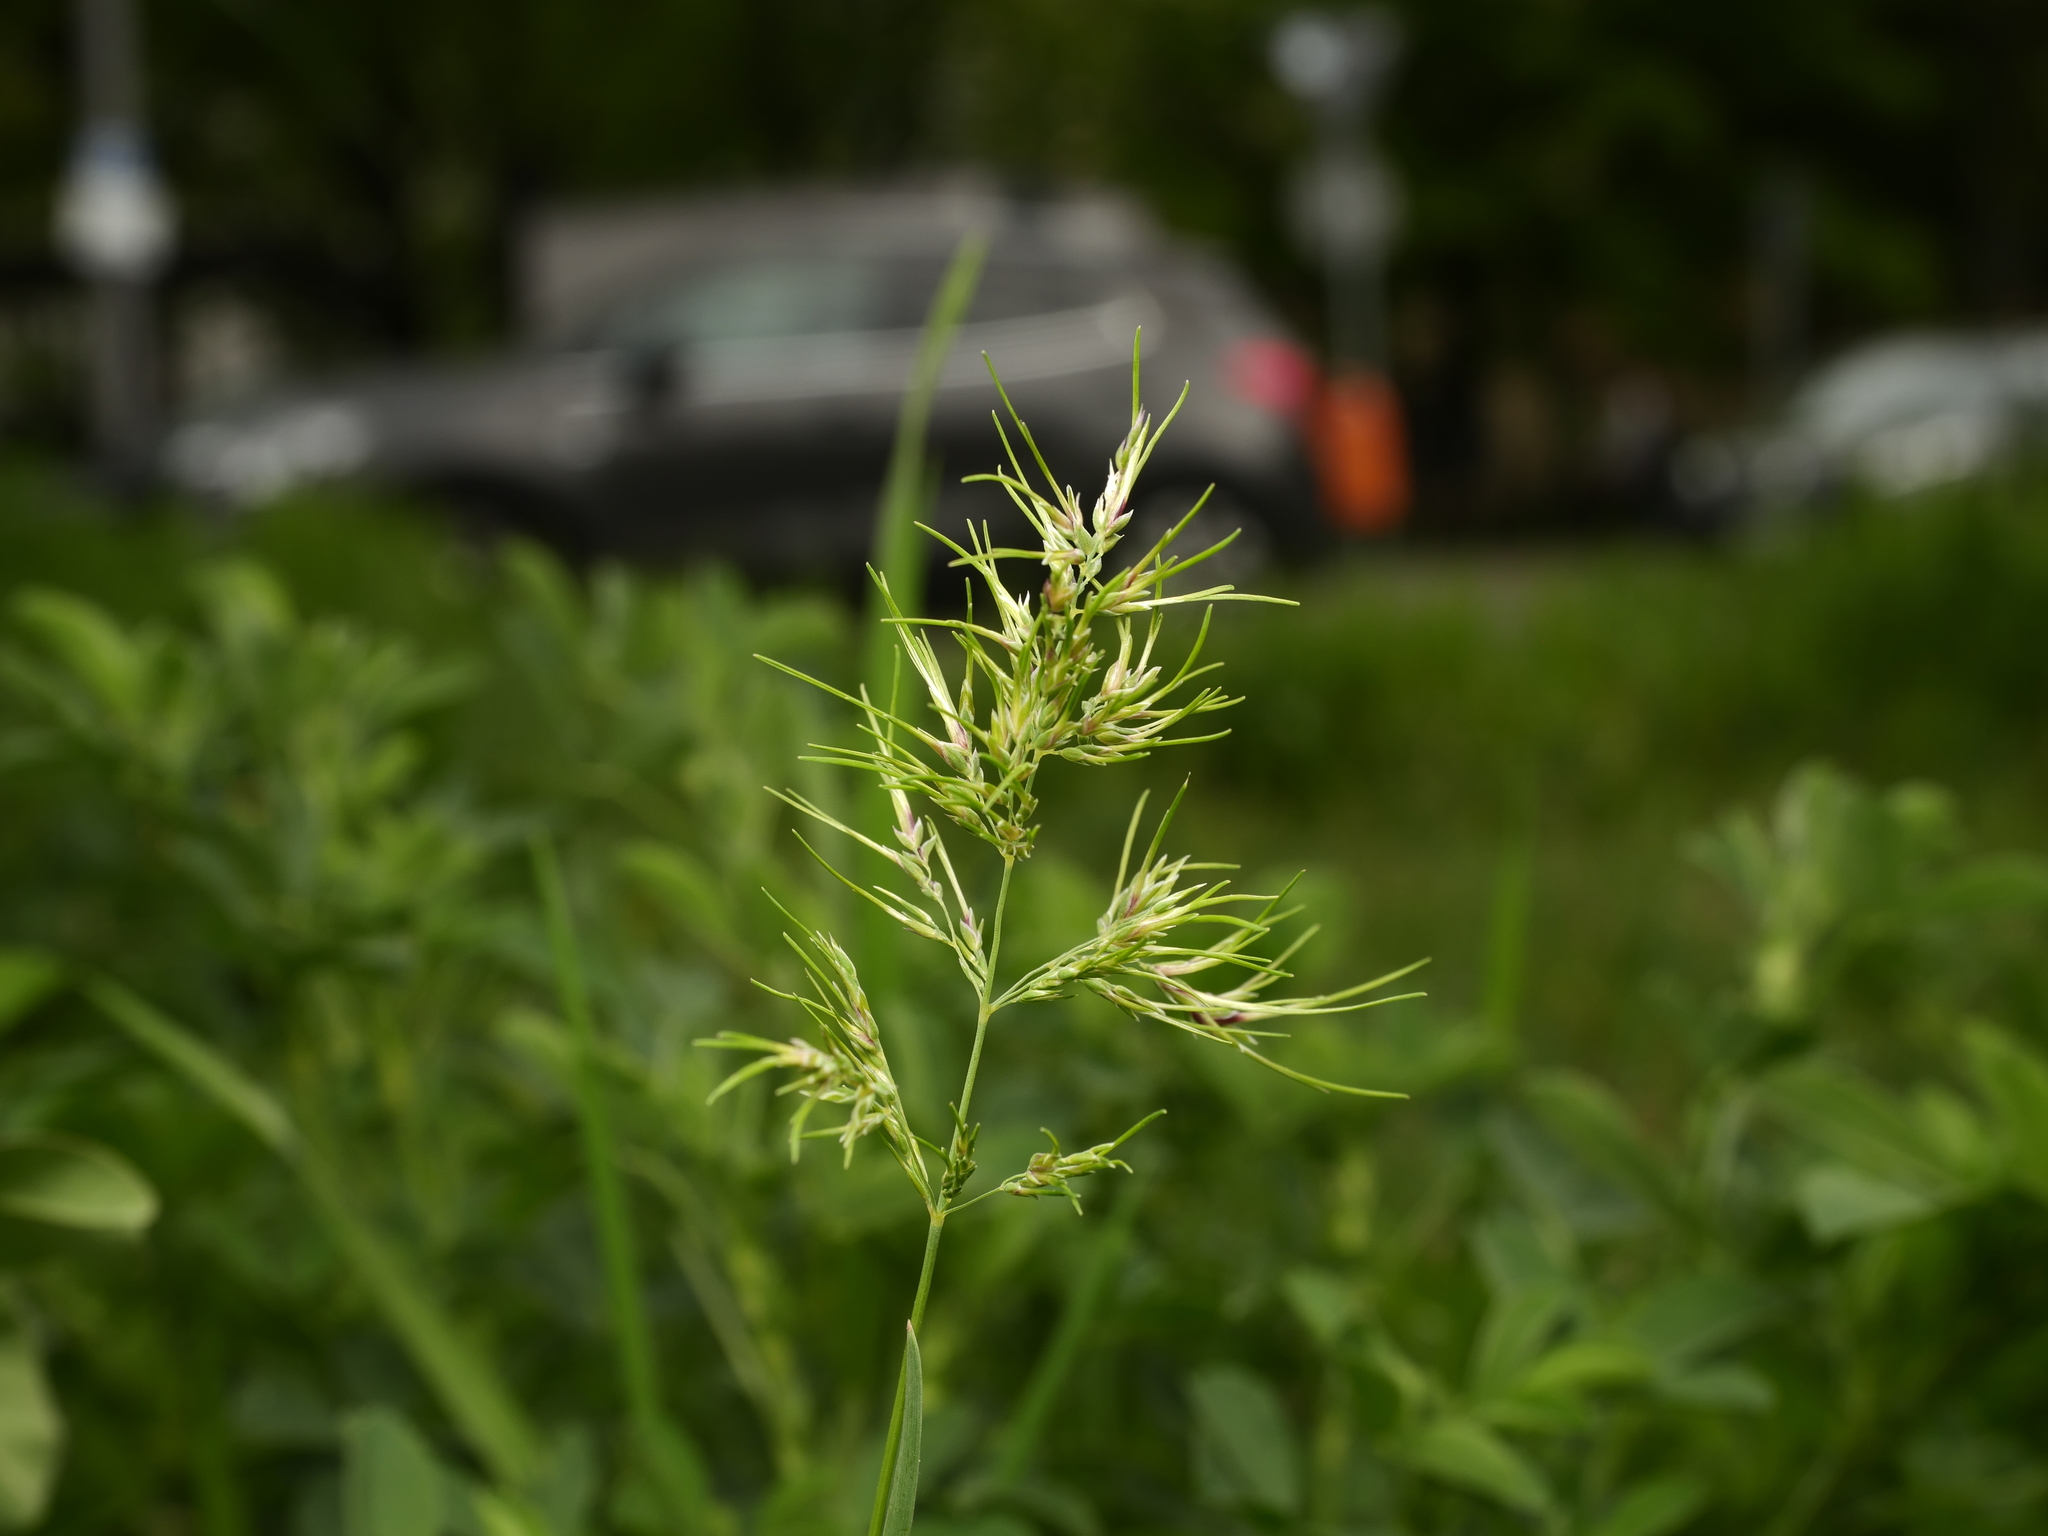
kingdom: Plantae
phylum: Tracheophyta
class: Liliopsida
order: Poales
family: Poaceae
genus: Poa
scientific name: Poa bulbosa
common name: Bulbous bluegrass
